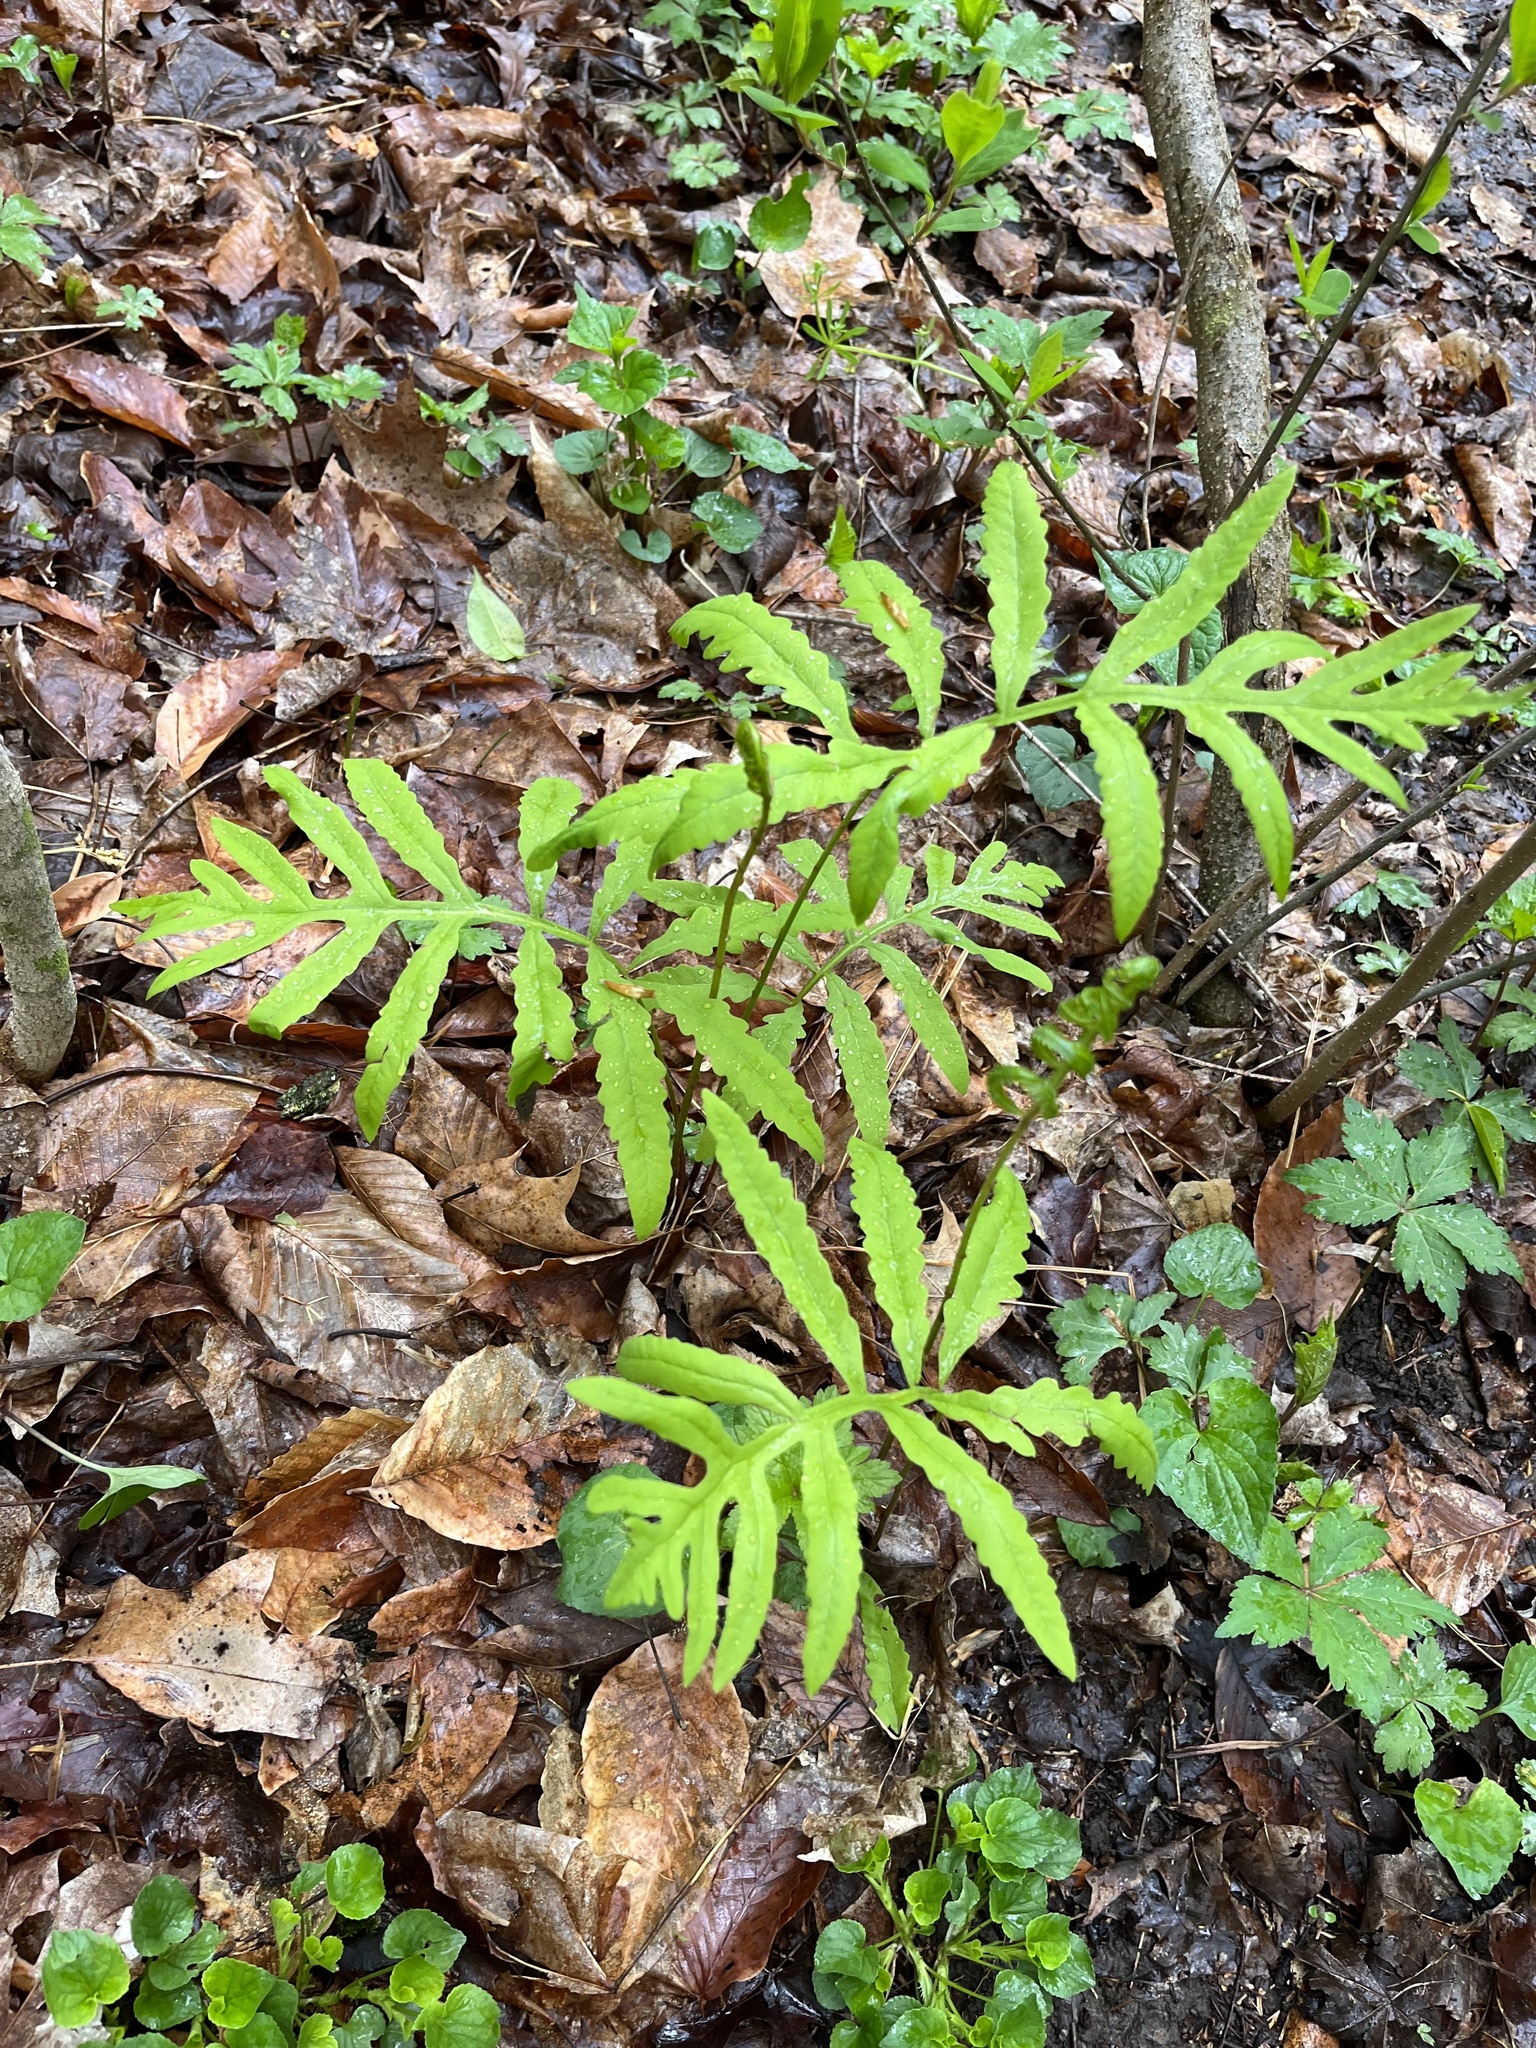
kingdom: Plantae
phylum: Tracheophyta
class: Polypodiopsida
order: Polypodiales
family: Onocleaceae
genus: Onoclea
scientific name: Onoclea sensibilis
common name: Sensitive fern
